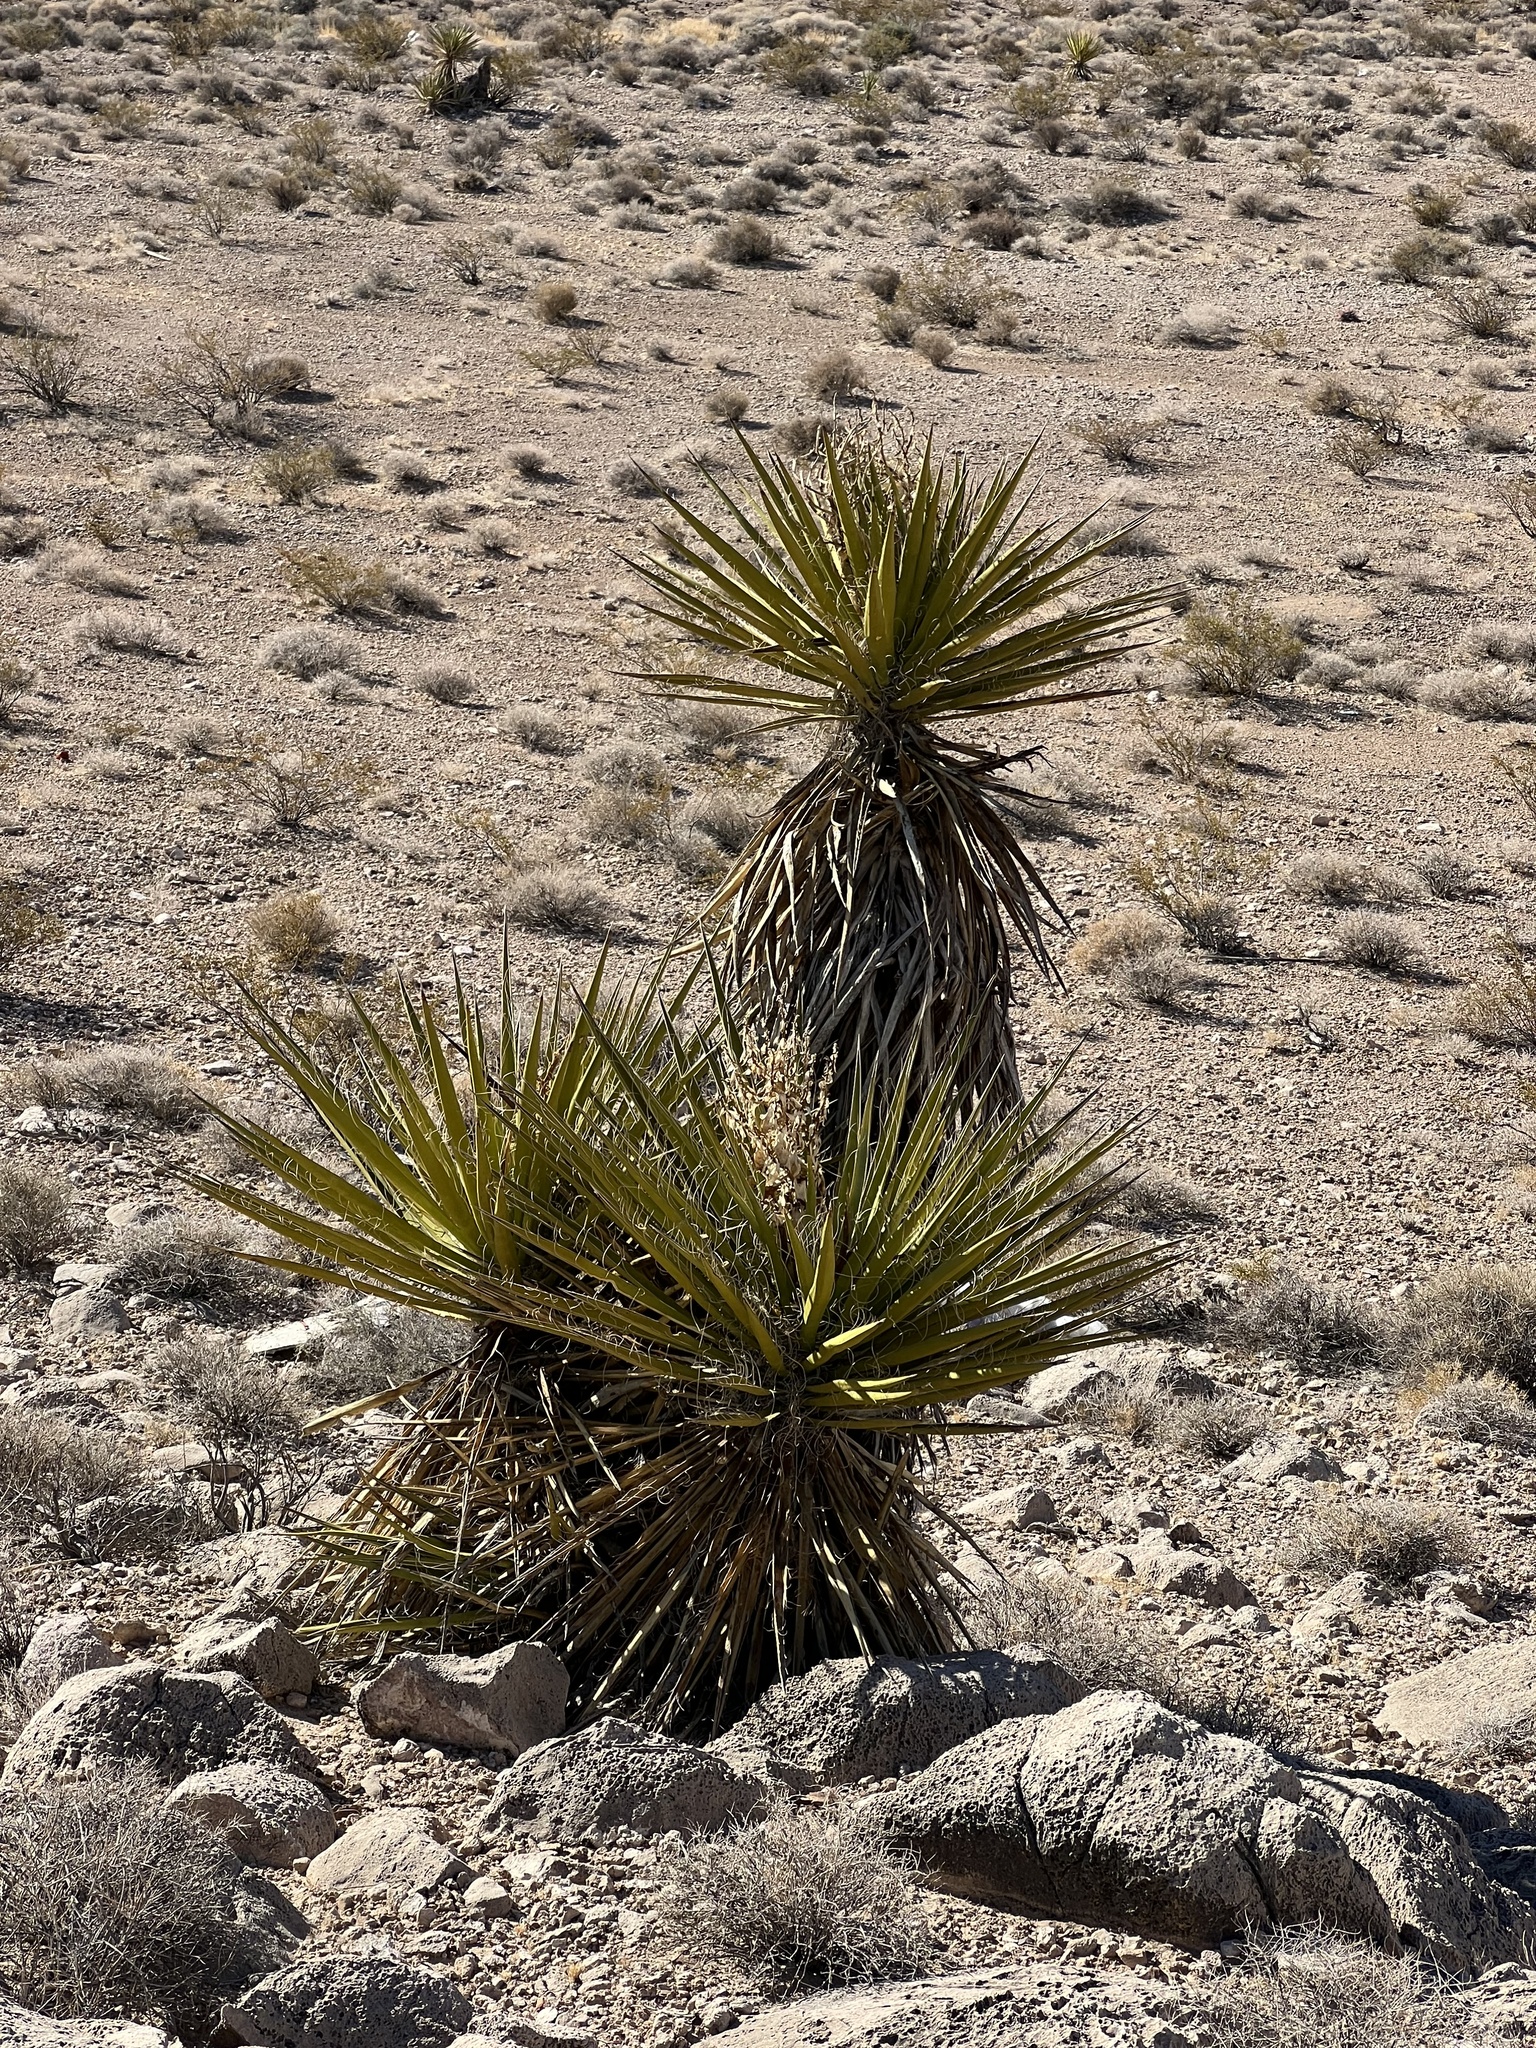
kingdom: Plantae
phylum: Tracheophyta
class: Liliopsida
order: Asparagales
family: Asparagaceae
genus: Yucca
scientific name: Yucca schidigera
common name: Mojave yucca
